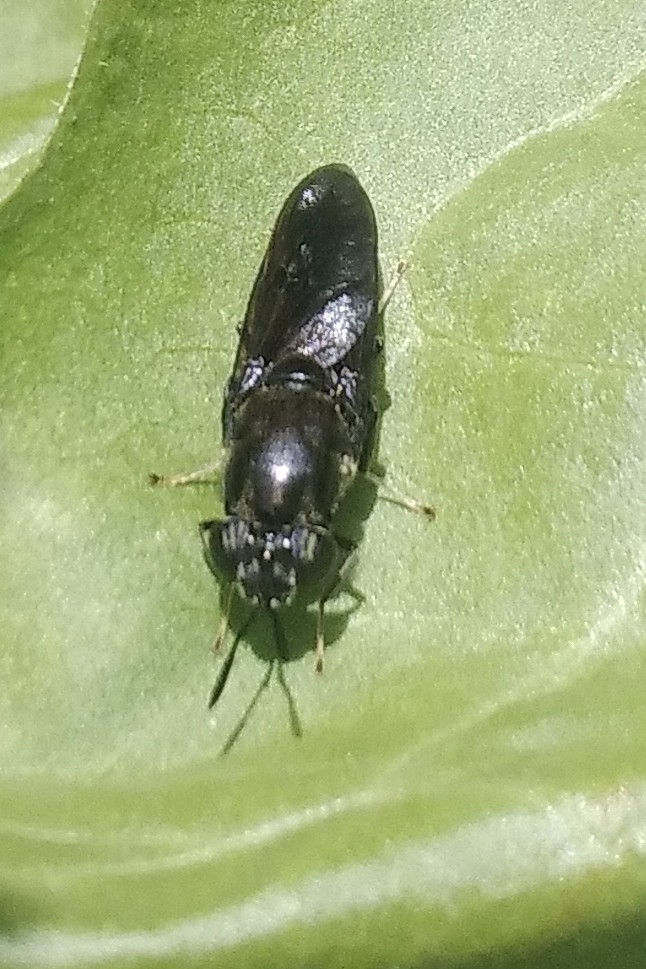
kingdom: Animalia
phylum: Arthropoda
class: Insecta
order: Diptera
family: Stratiomyidae
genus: Hermetia
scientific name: Hermetia illucens
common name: Black soldier fly
